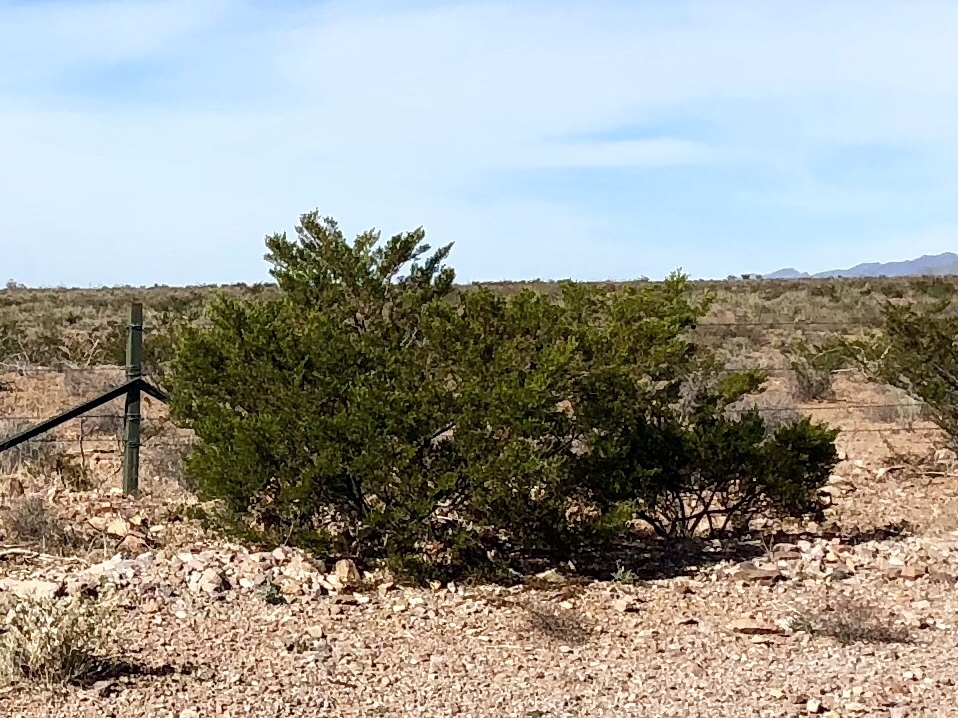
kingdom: Plantae
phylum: Tracheophyta
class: Magnoliopsida
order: Zygophyllales
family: Zygophyllaceae
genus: Larrea
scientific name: Larrea tridentata
